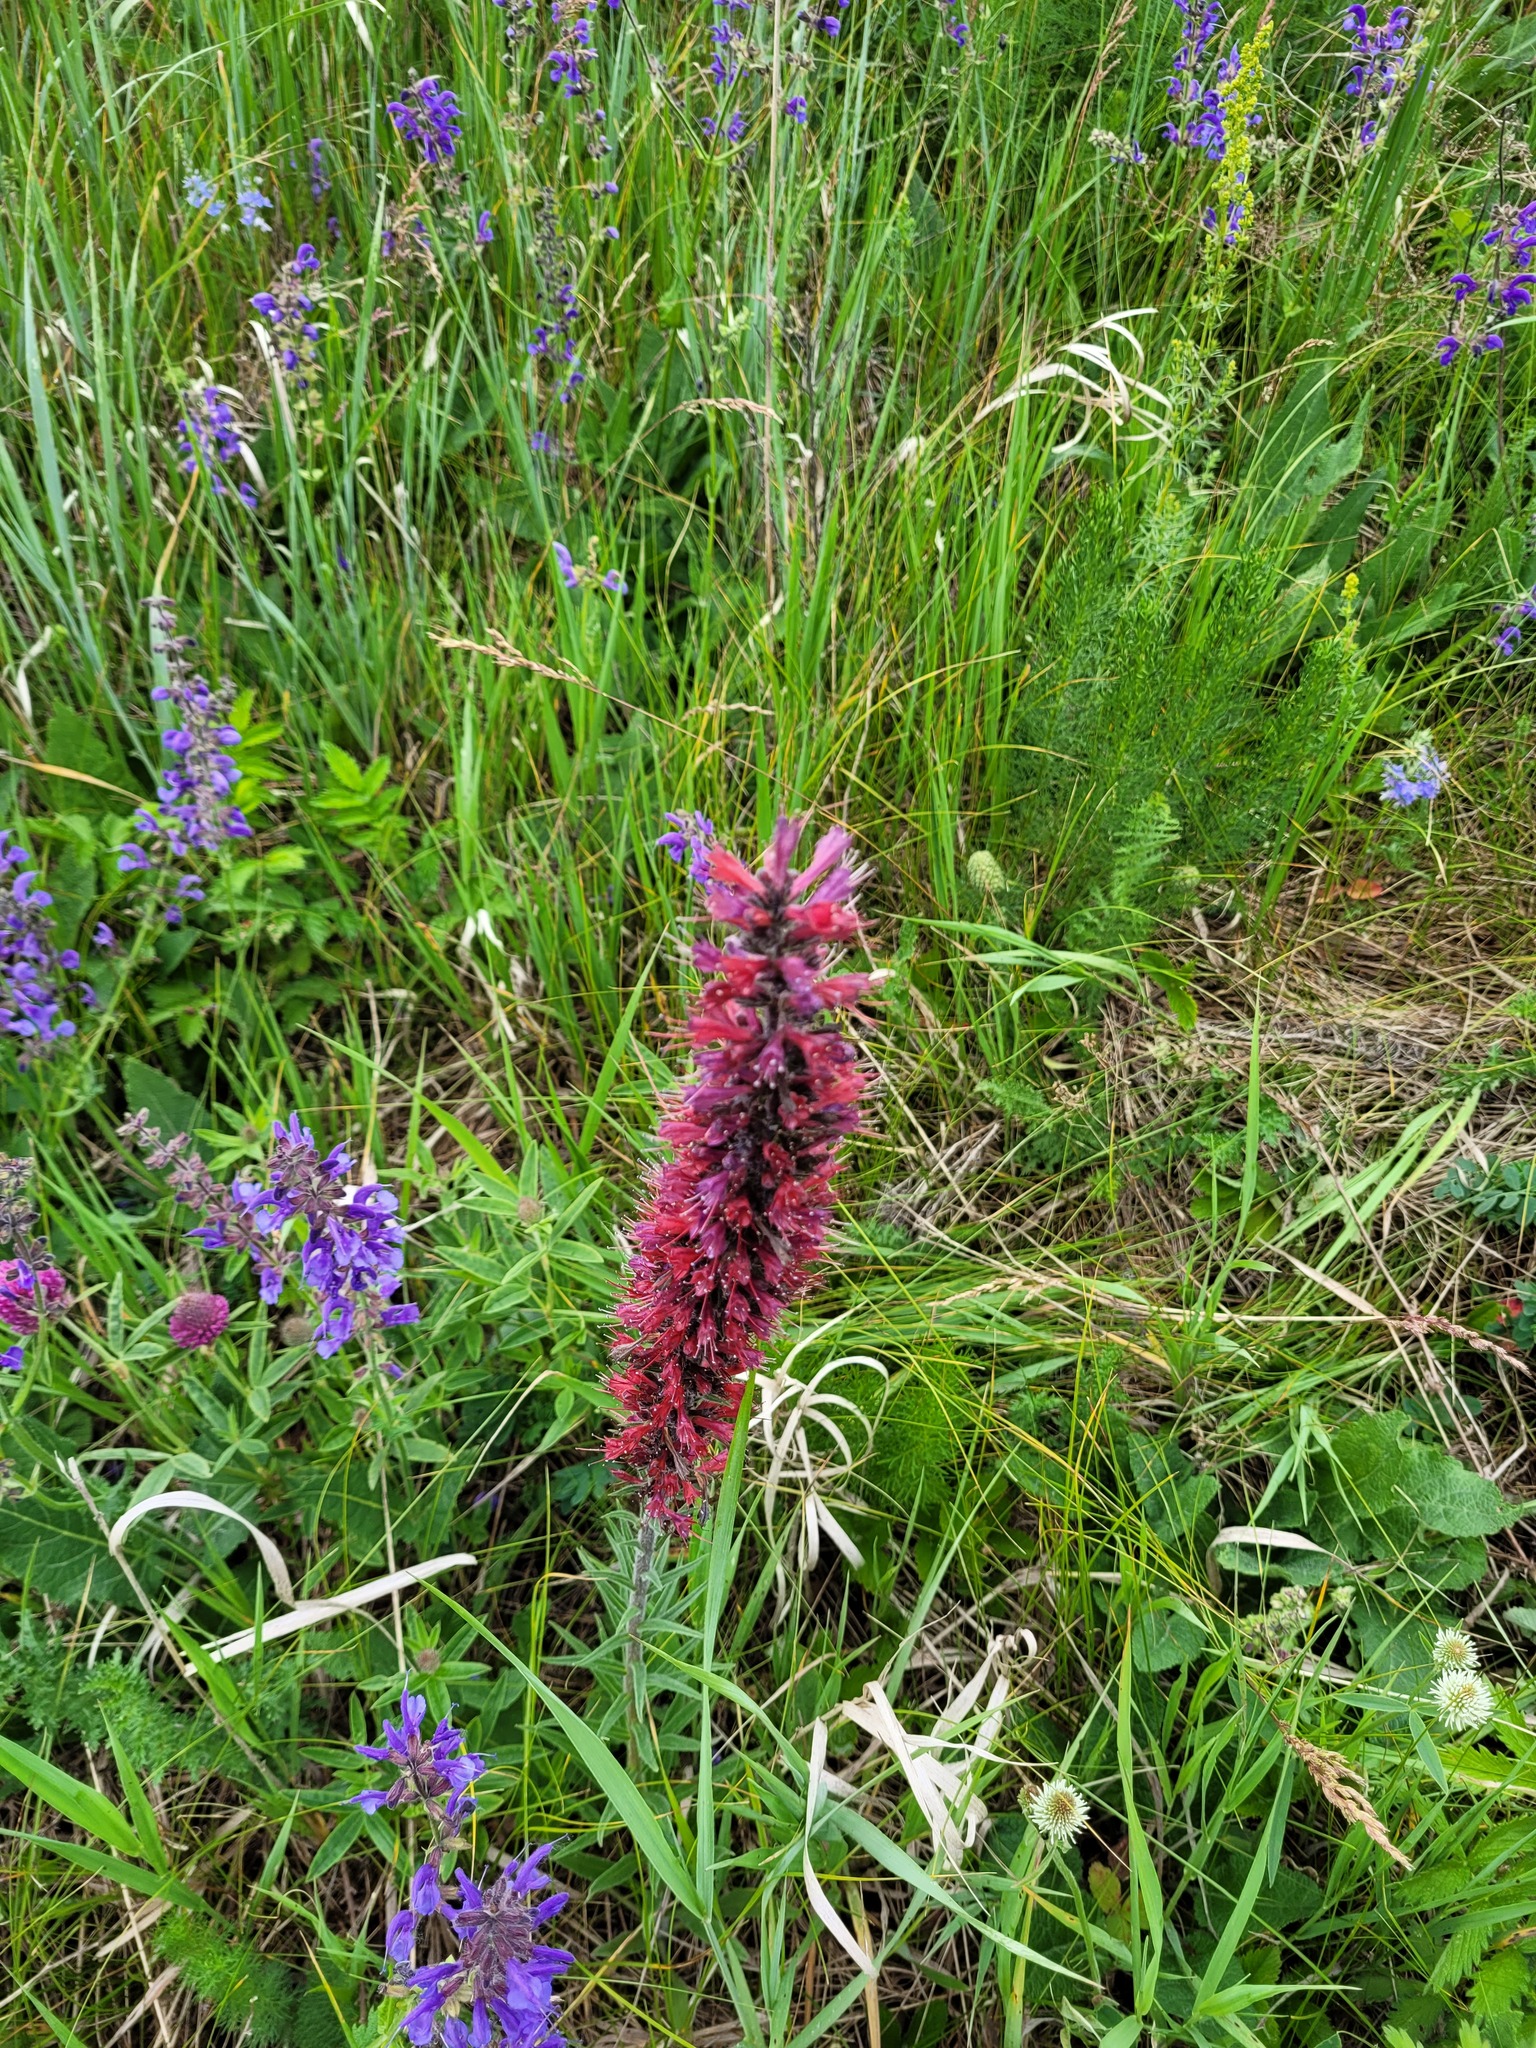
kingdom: Plantae
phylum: Tracheophyta
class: Magnoliopsida
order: Boraginales
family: Boraginaceae
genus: Pontechium
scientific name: Pontechium maculatum
